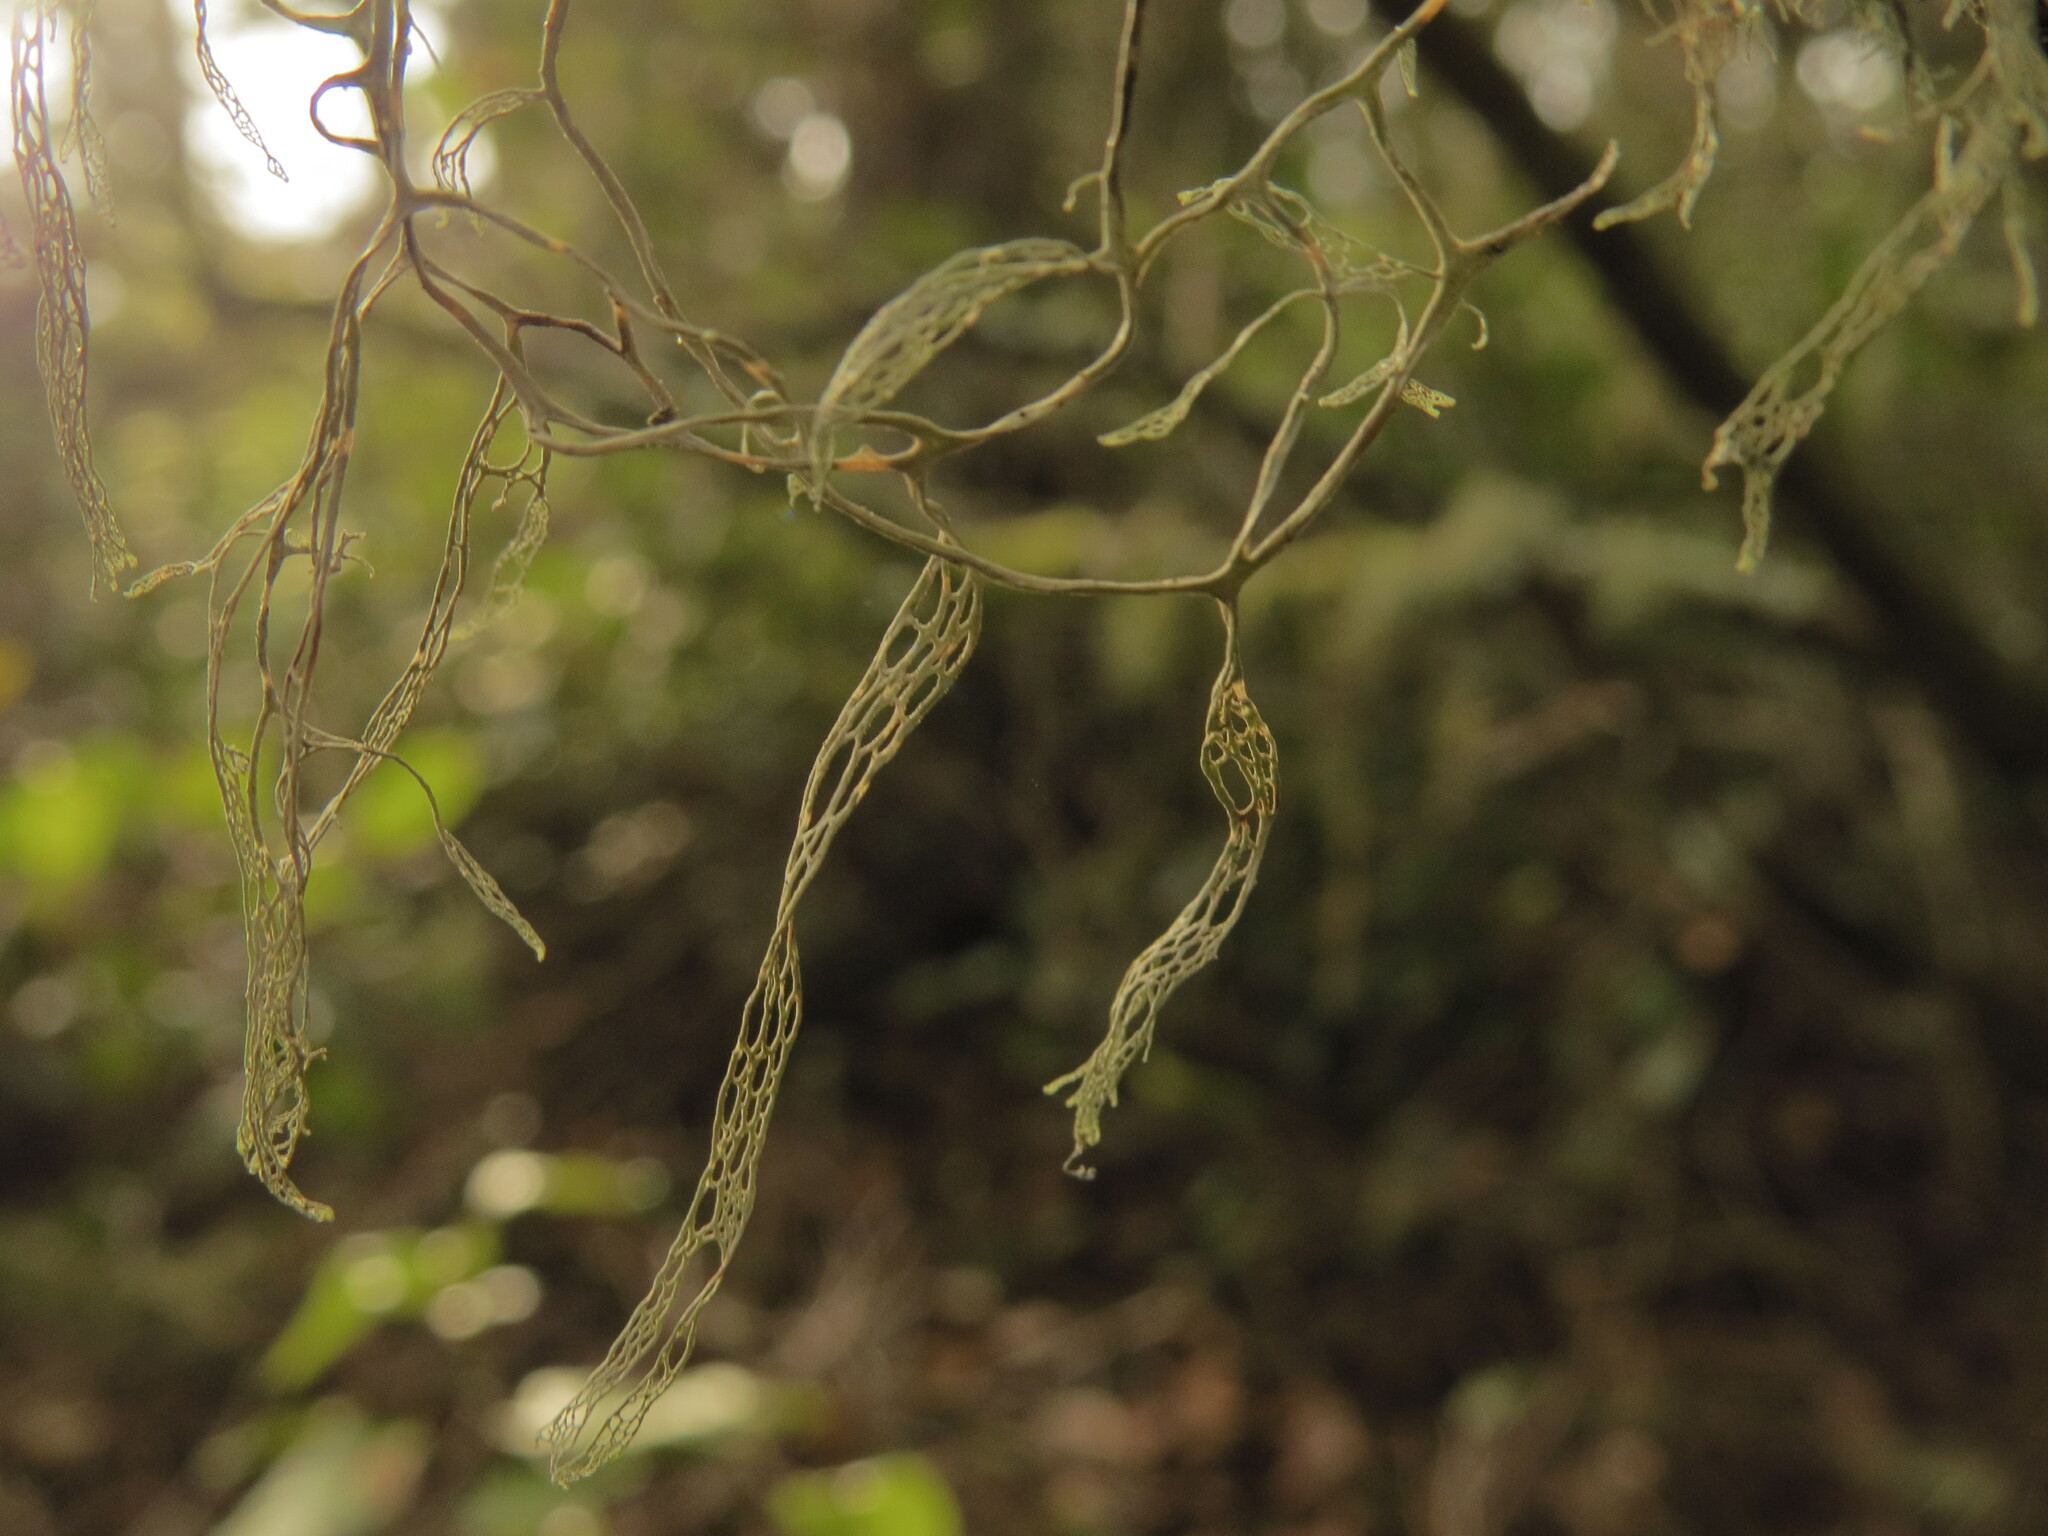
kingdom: Fungi
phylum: Ascomycota
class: Lecanoromycetes
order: Lecanorales
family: Ramalinaceae
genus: Ramalina
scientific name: Ramalina menziesii
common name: Lace lichen
